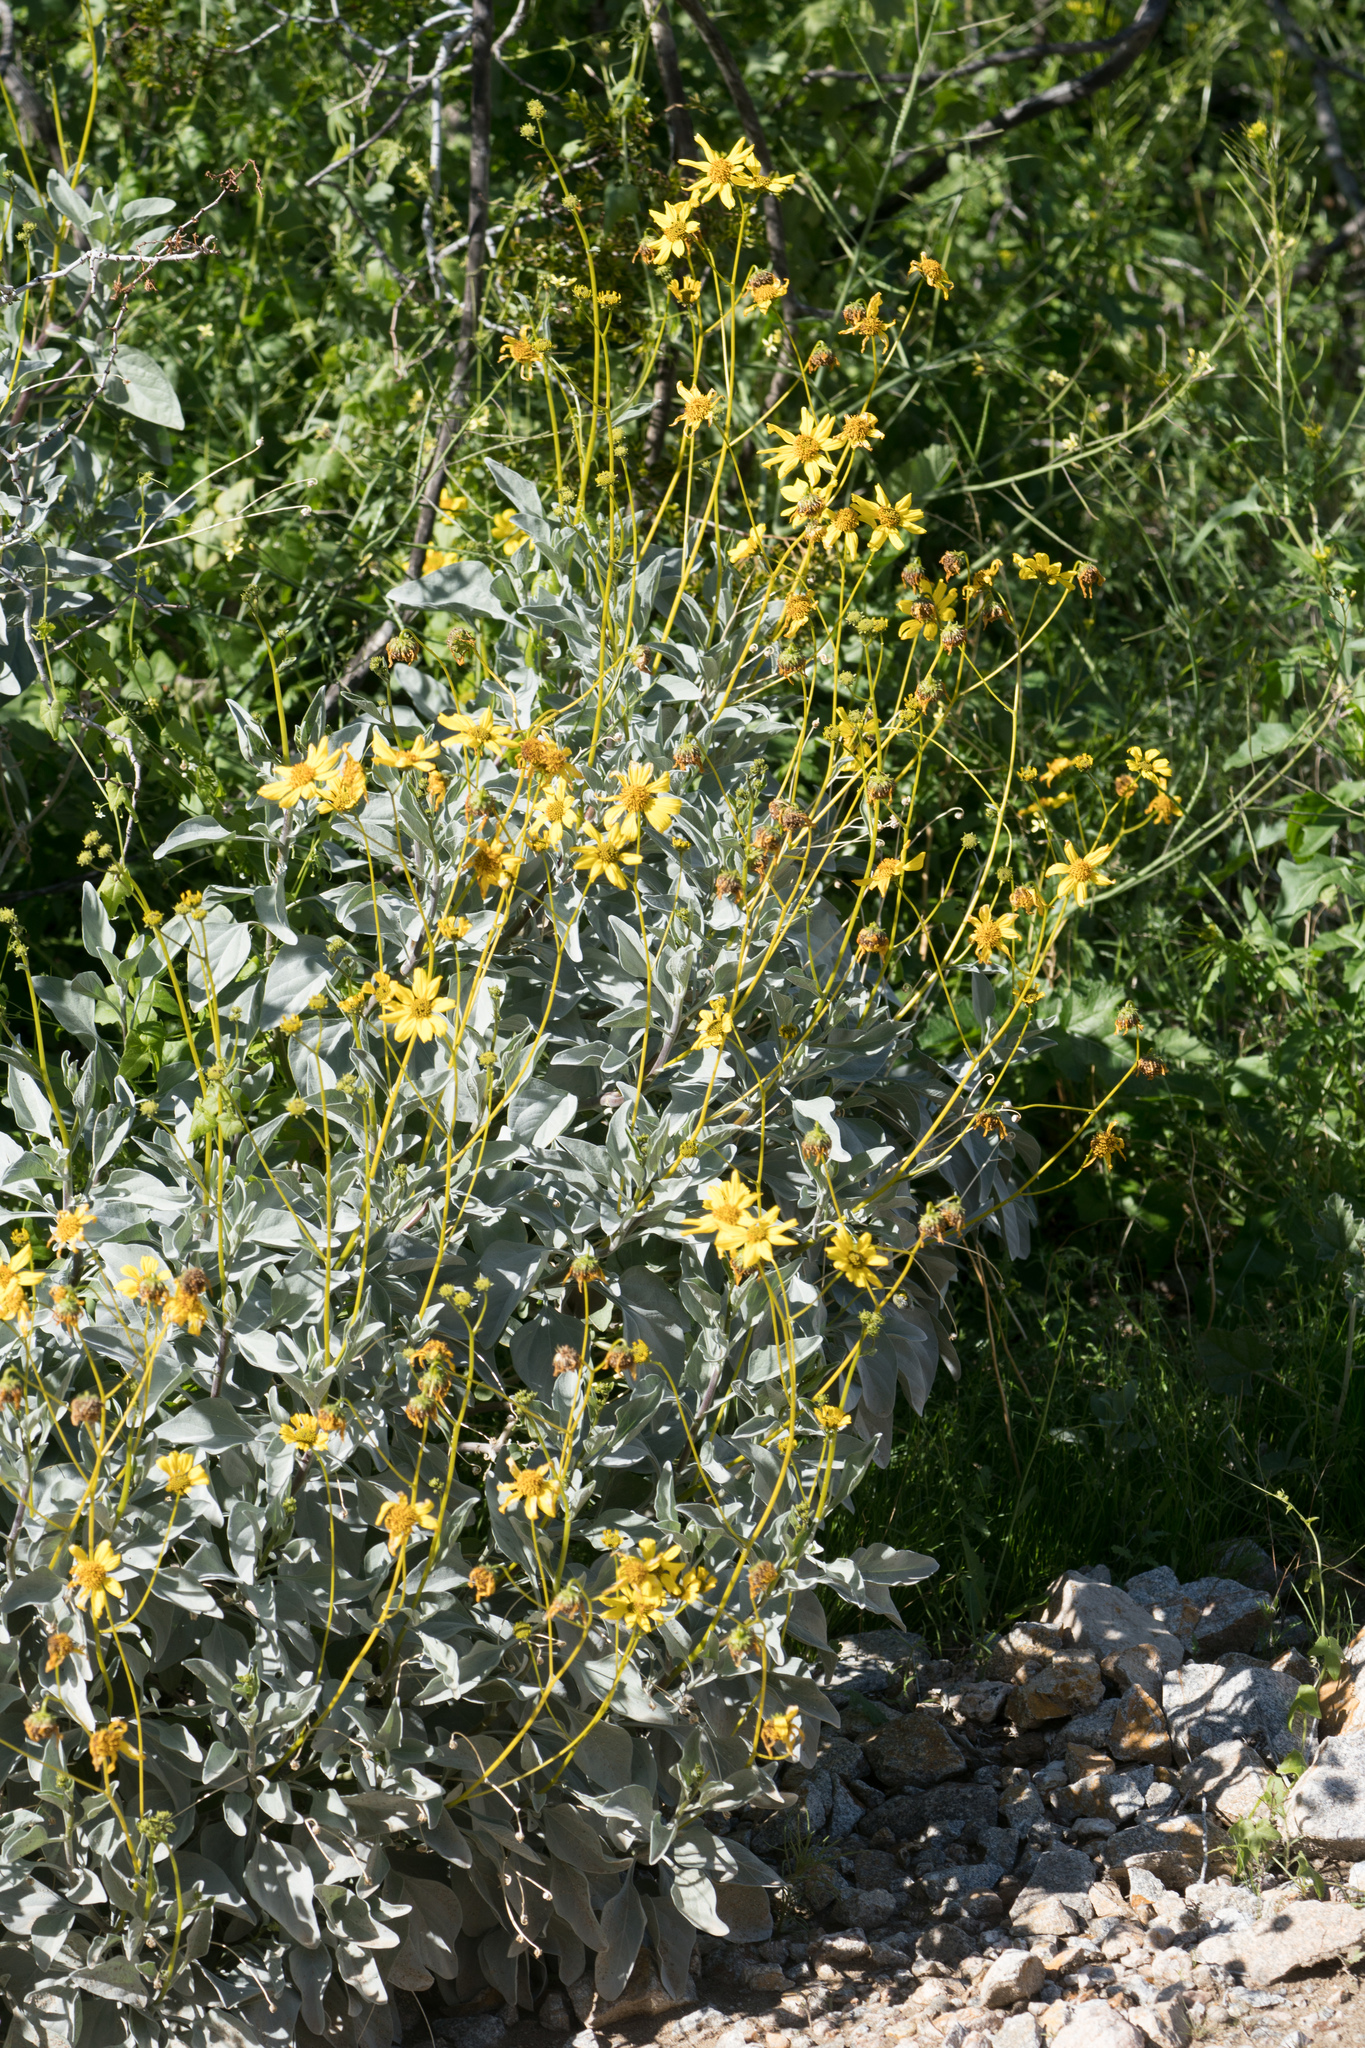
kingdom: Plantae
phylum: Tracheophyta
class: Magnoliopsida
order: Asterales
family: Asteraceae
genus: Encelia
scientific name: Encelia farinosa
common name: Brittlebush
